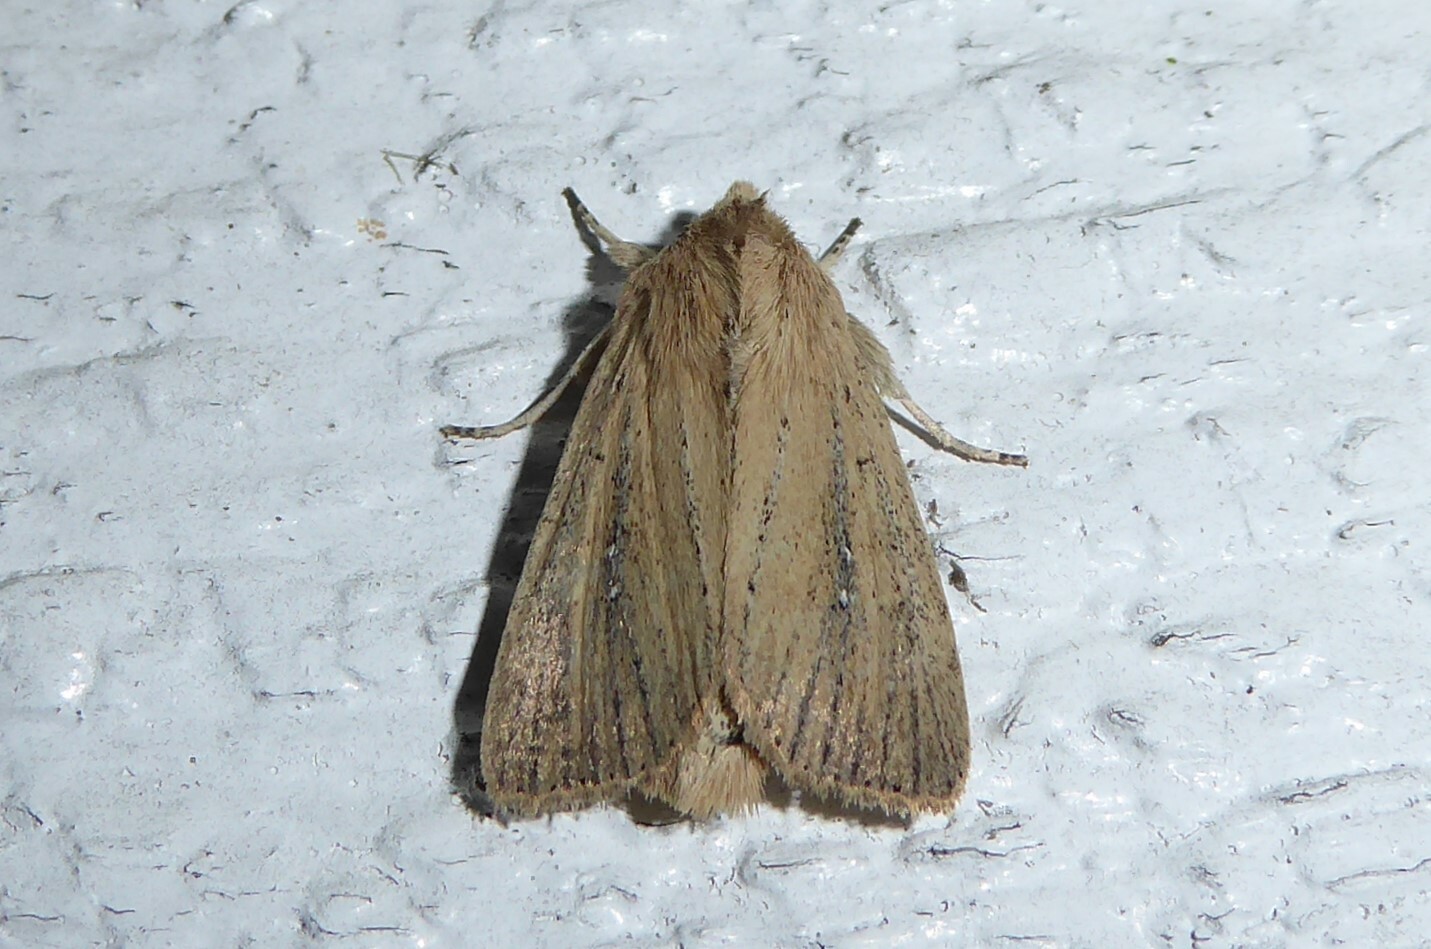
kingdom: Animalia
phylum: Arthropoda
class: Insecta
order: Lepidoptera
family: Noctuidae
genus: Ichneutica
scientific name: Ichneutica
